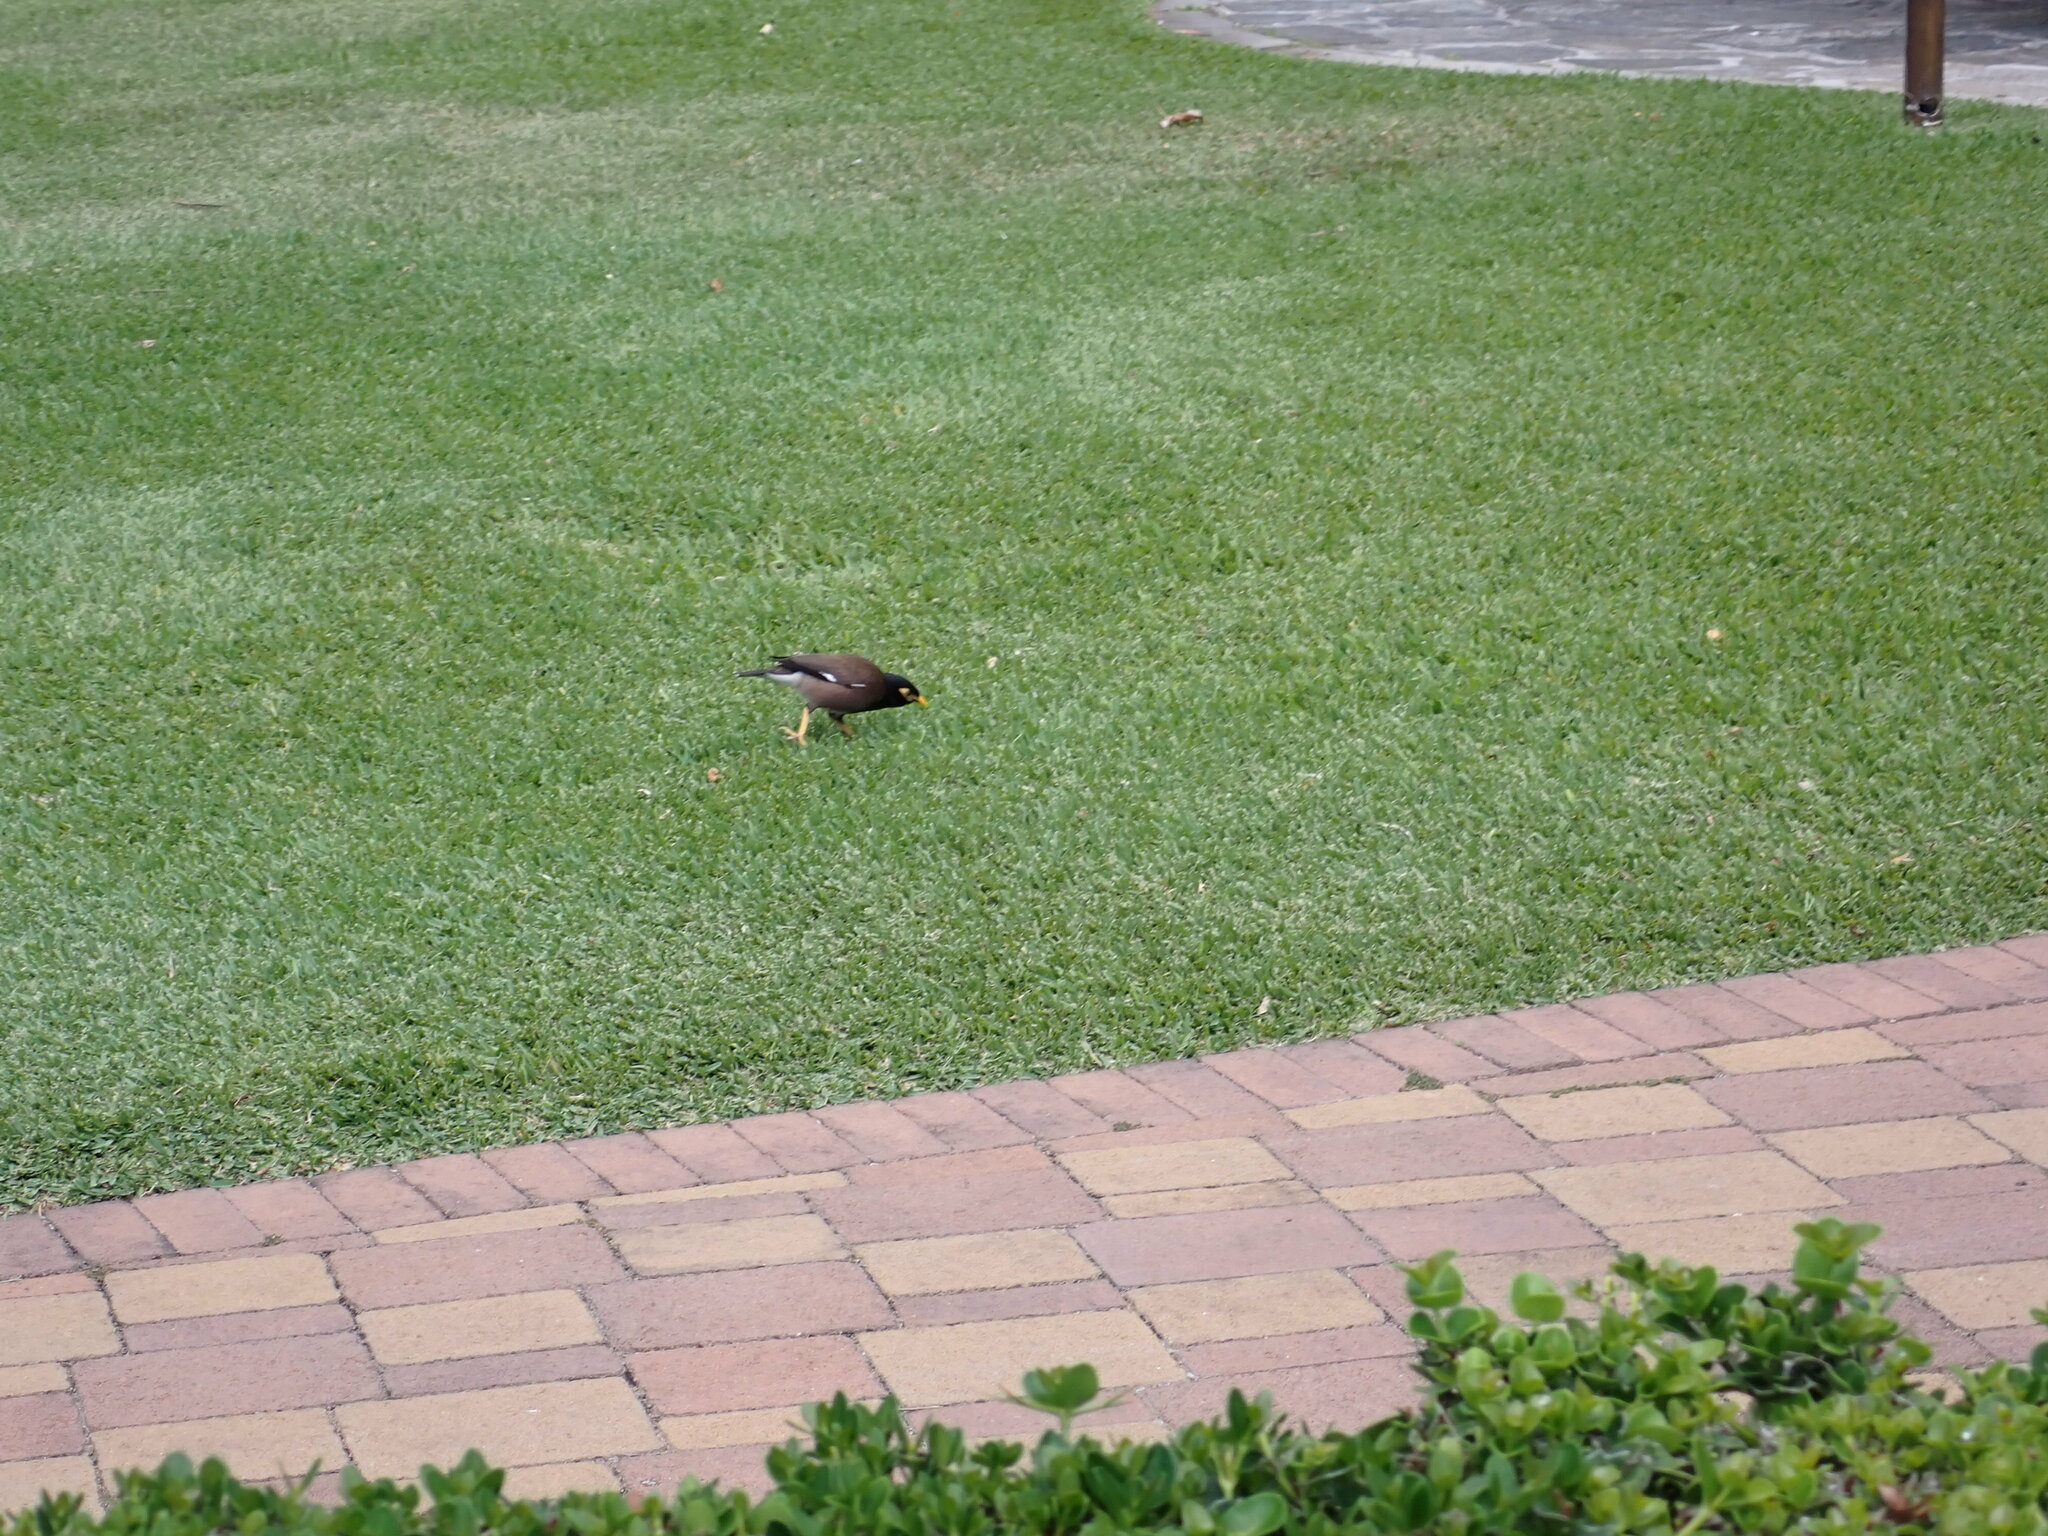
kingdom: Animalia
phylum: Chordata
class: Aves
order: Passeriformes
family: Sturnidae
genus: Acridotheres
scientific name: Acridotheres tristis
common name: Common myna
